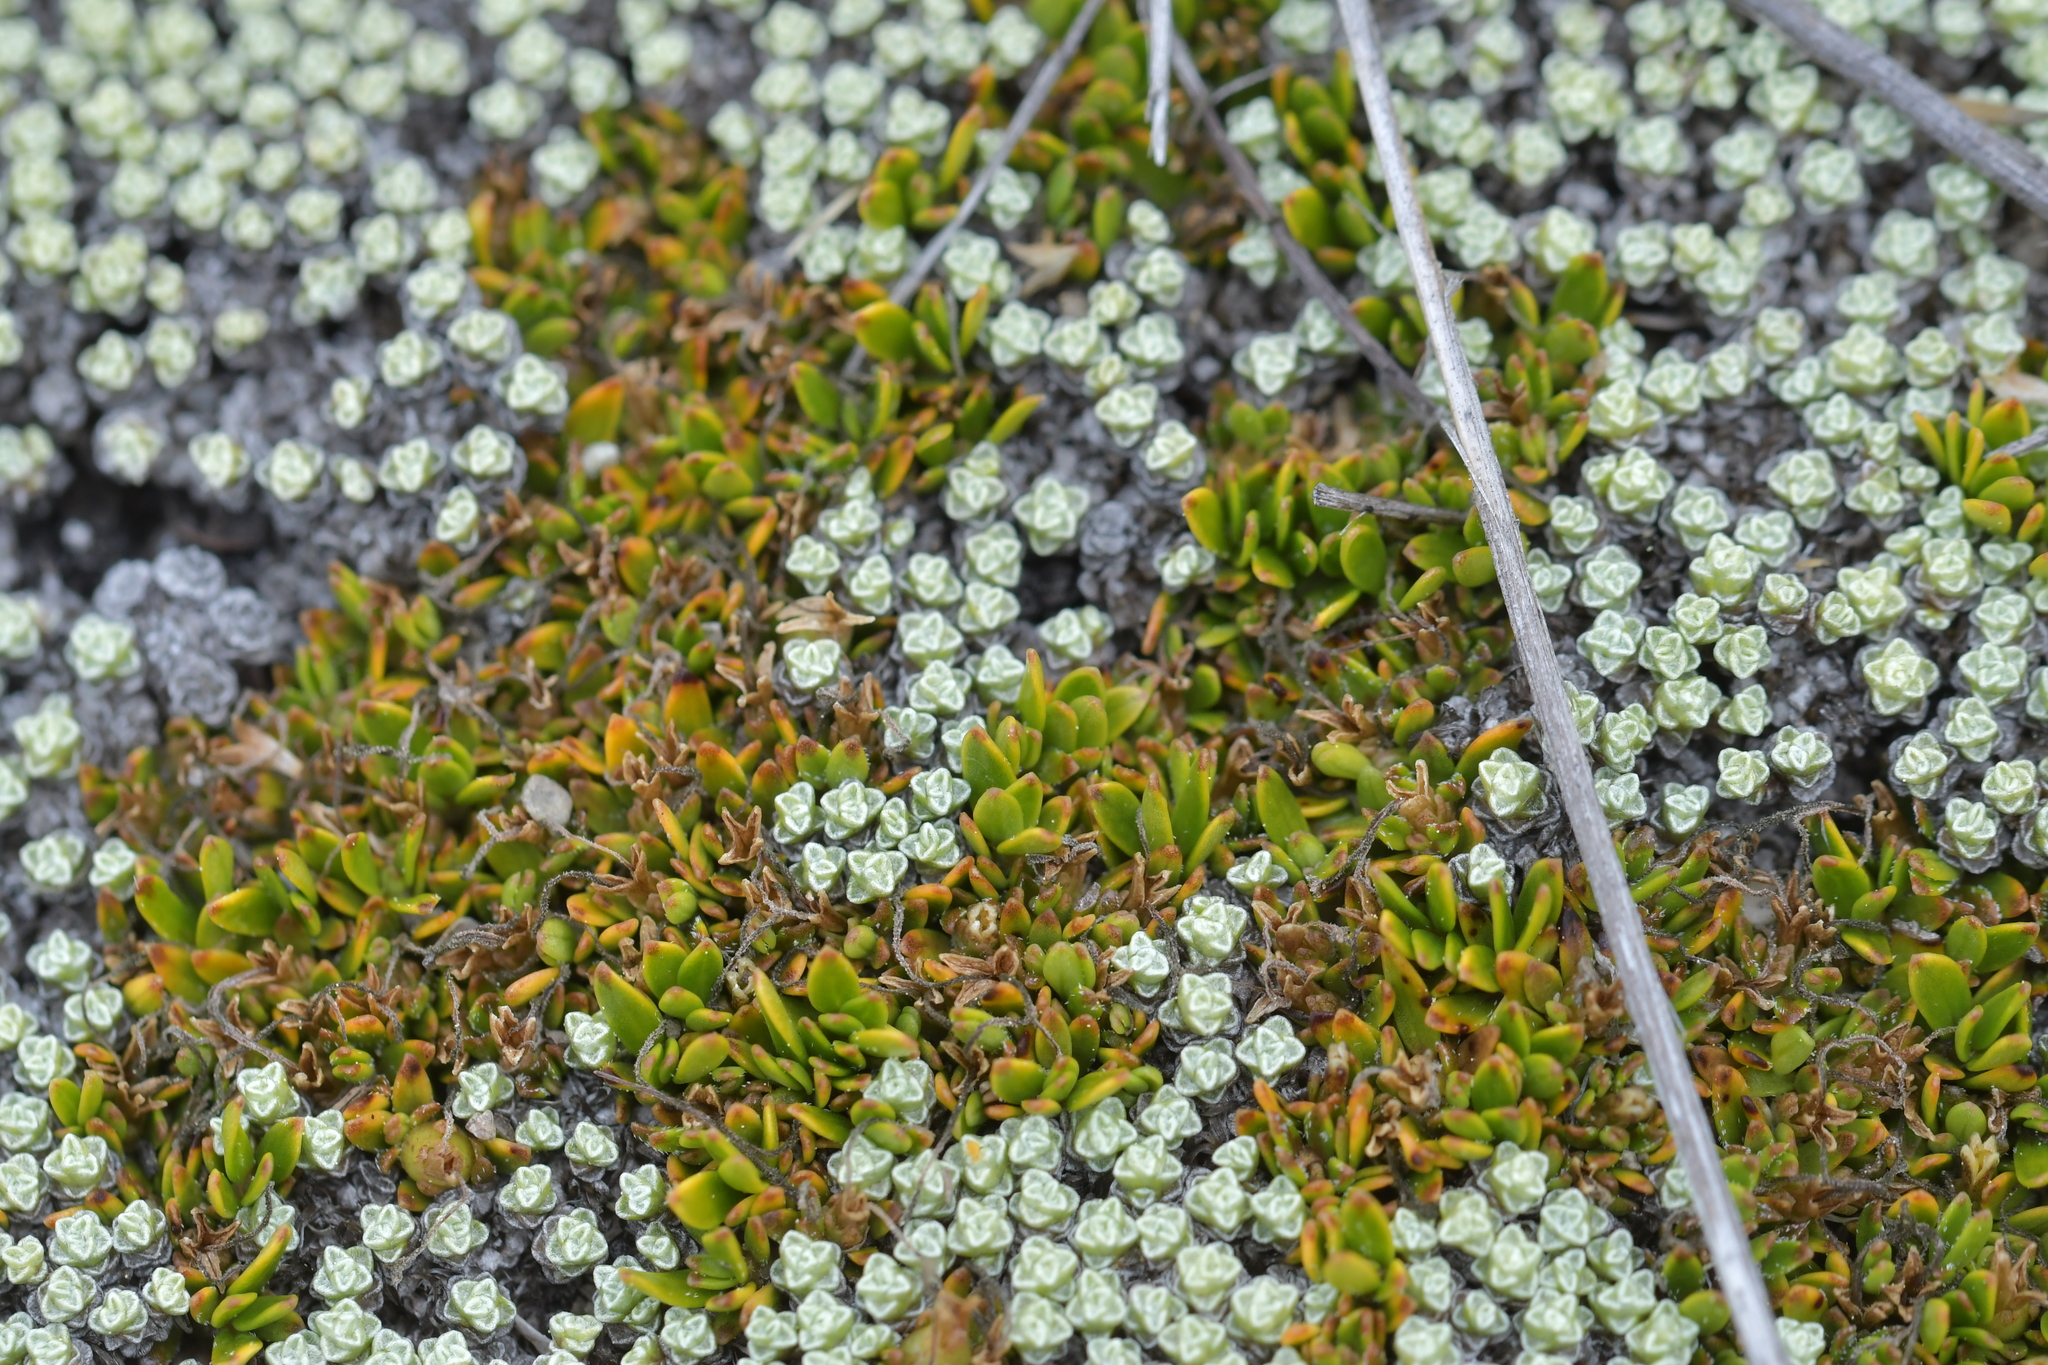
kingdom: Plantae
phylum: Tracheophyta
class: Magnoliopsida
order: Gentianales
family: Rubiaceae
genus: Coprosma
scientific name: Coprosma petriei
